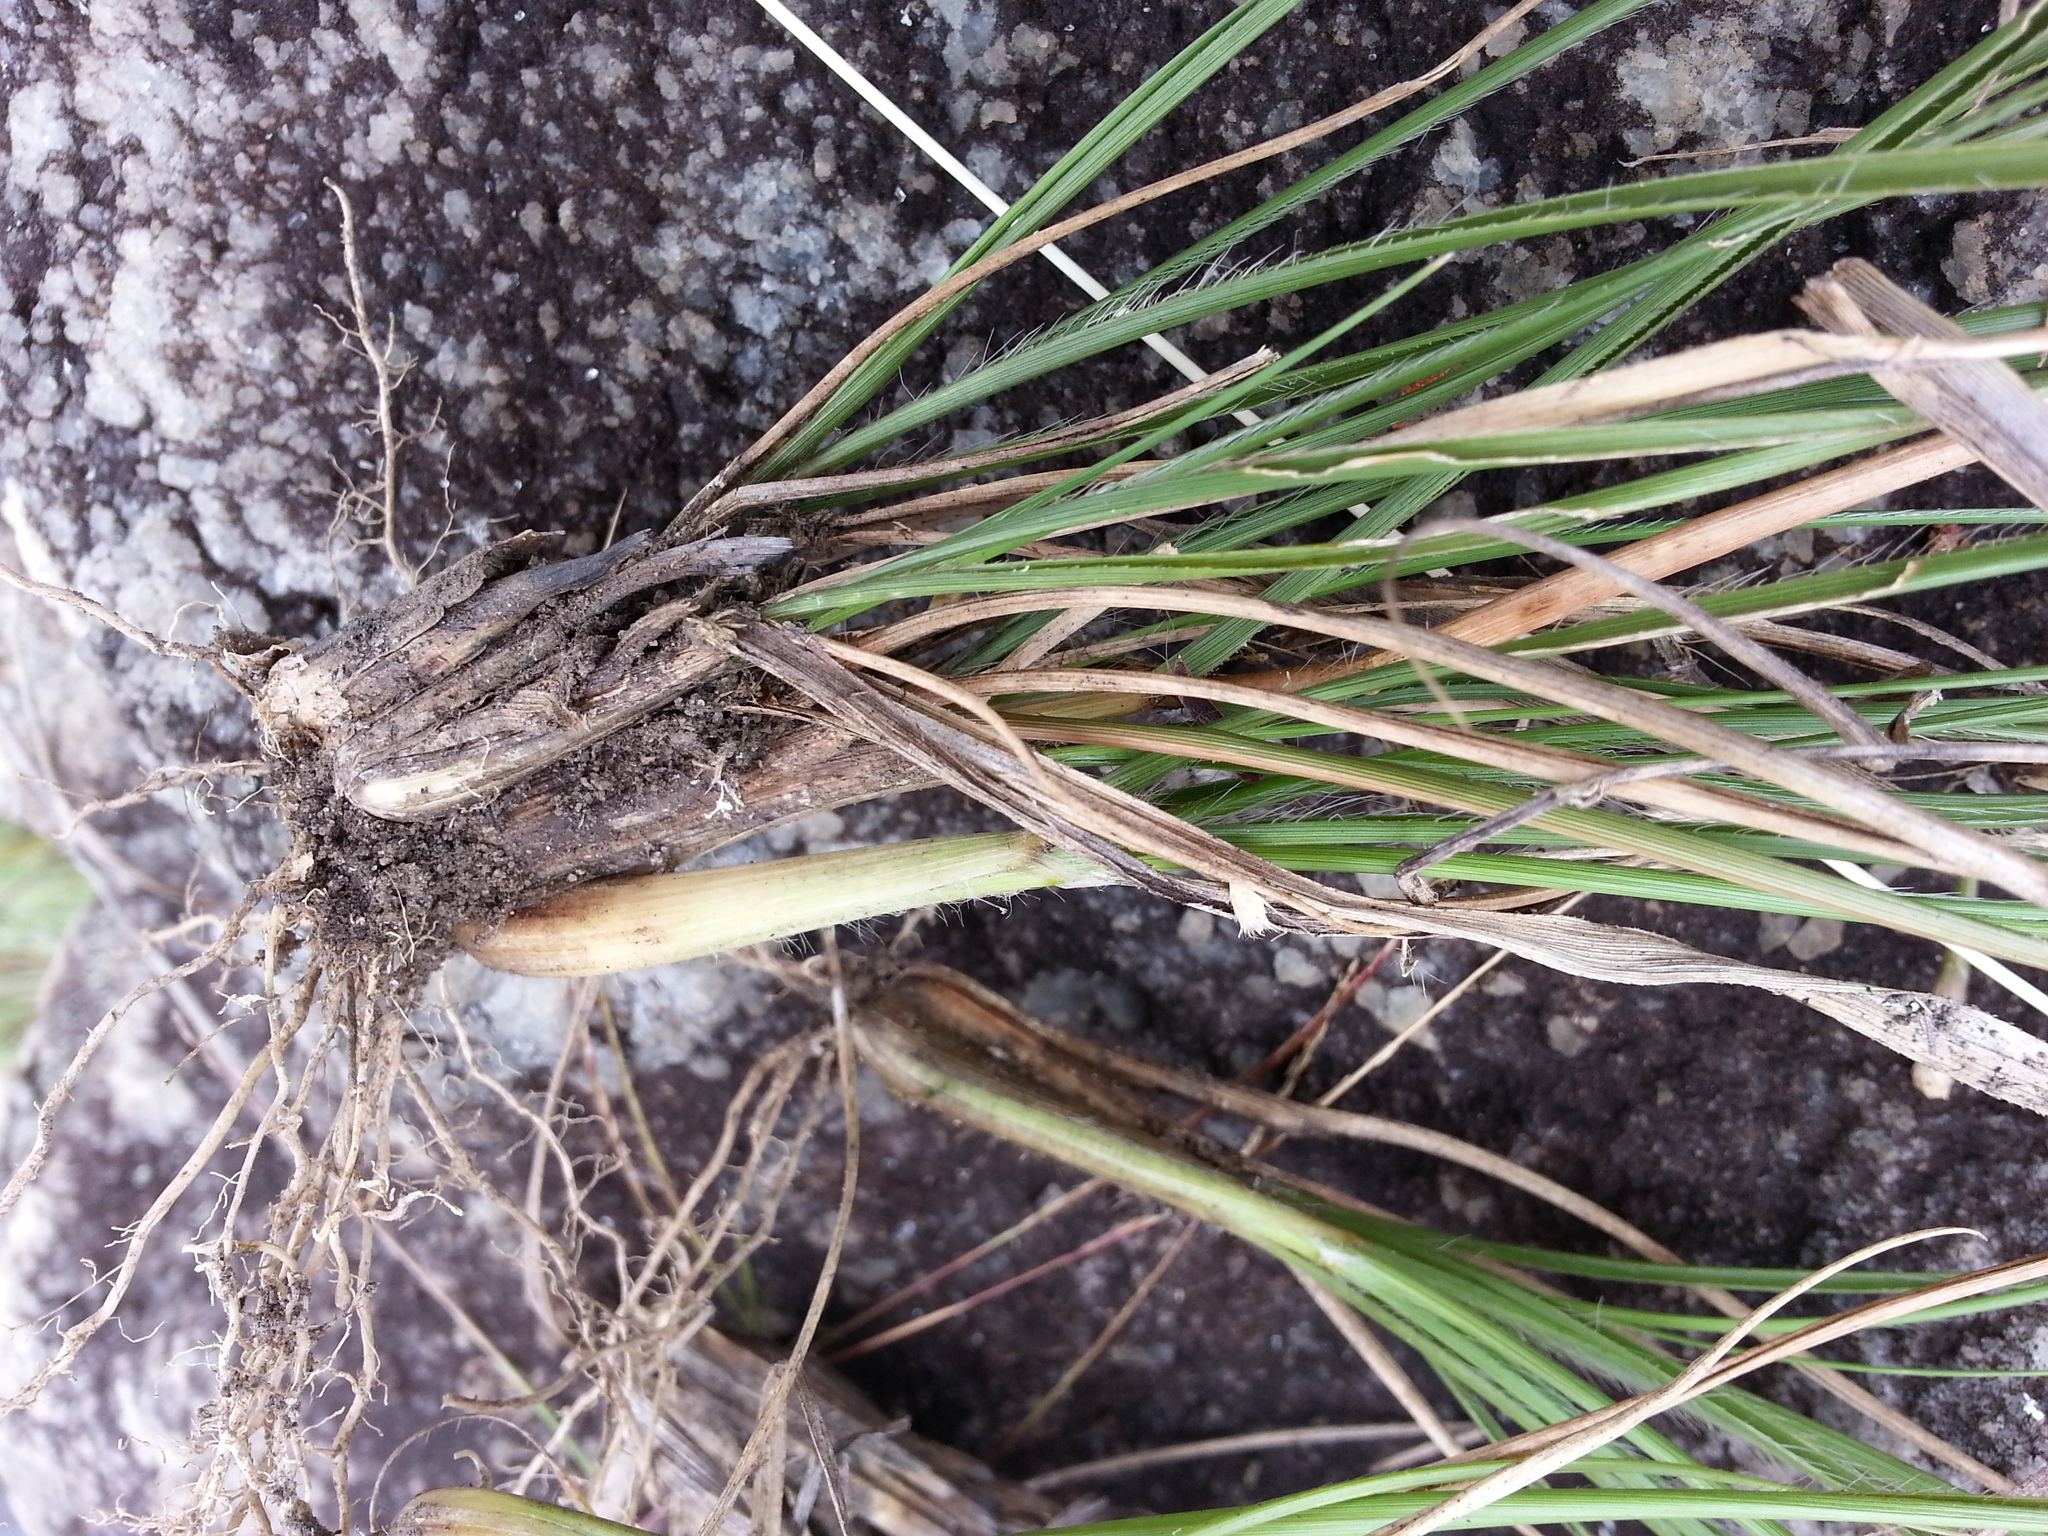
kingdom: Plantae
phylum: Tracheophyta
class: Liliopsida
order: Poales
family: Poaceae
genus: Sporobolus
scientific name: Sporobolus centrifugus
